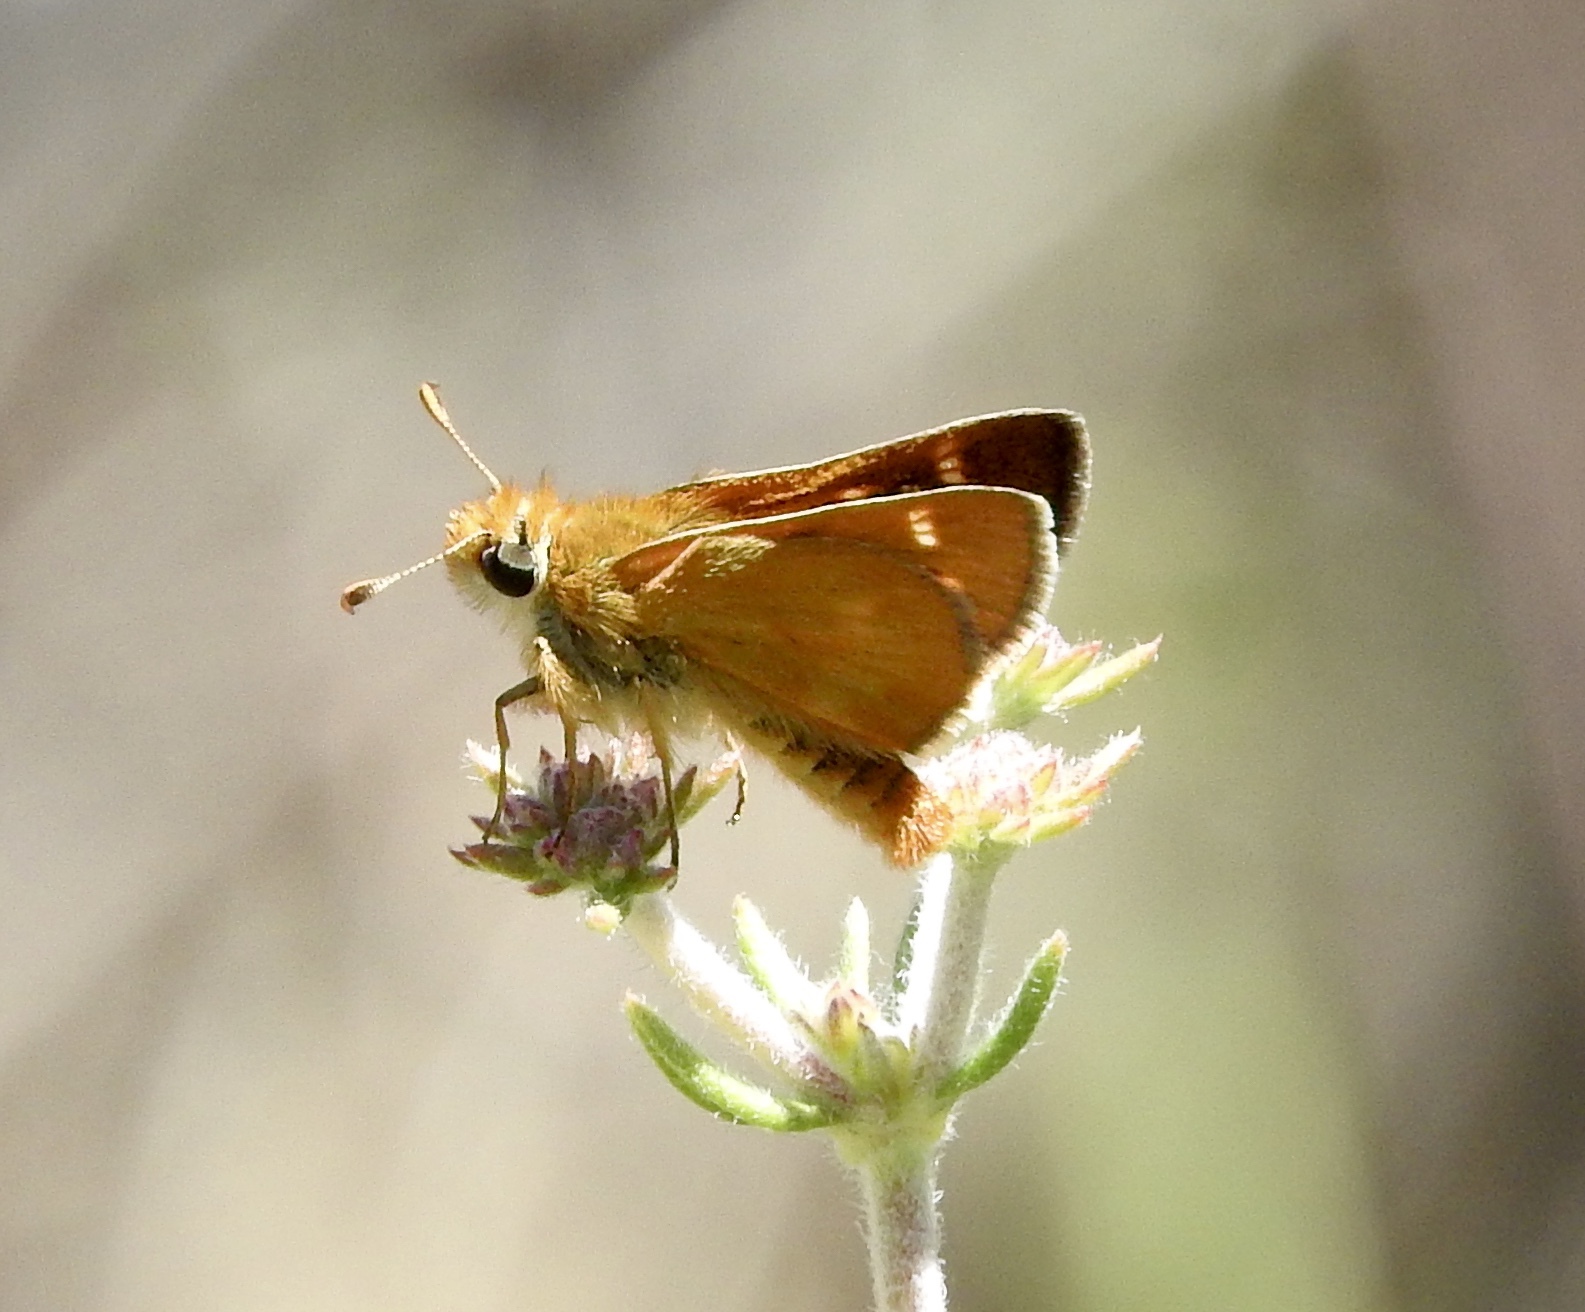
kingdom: Animalia
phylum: Arthropoda
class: Insecta
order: Lepidoptera
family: Hesperiidae
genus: Ochlodes
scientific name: Ochlodes agricola
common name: Rural skipper
